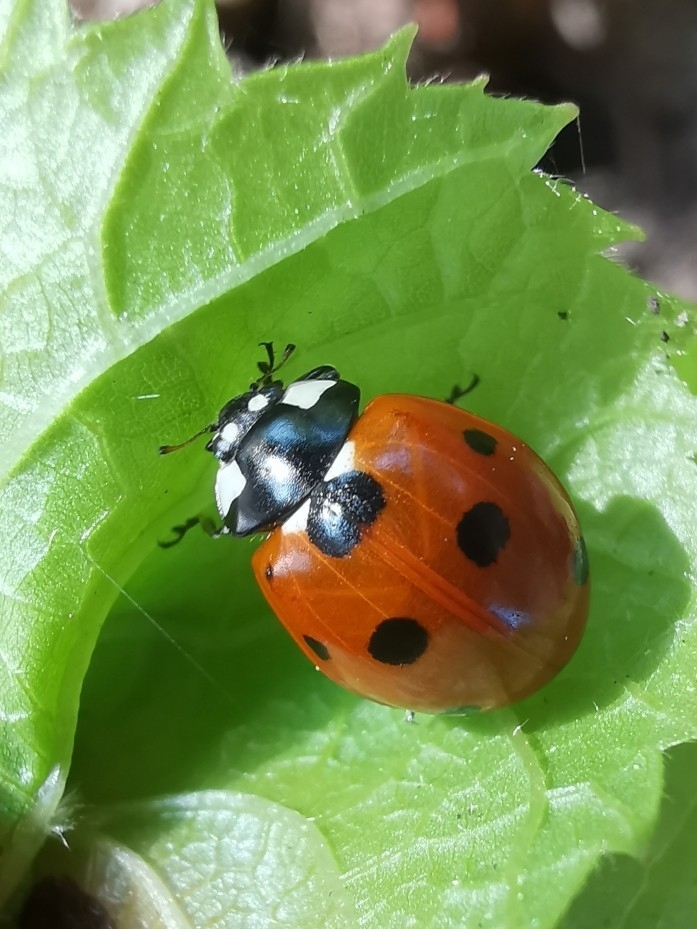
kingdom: Animalia
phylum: Arthropoda
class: Insecta
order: Coleoptera
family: Coccinellidae
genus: Coccinella
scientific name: Coccinella septempunctata
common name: Sevenspotted lady beetle
